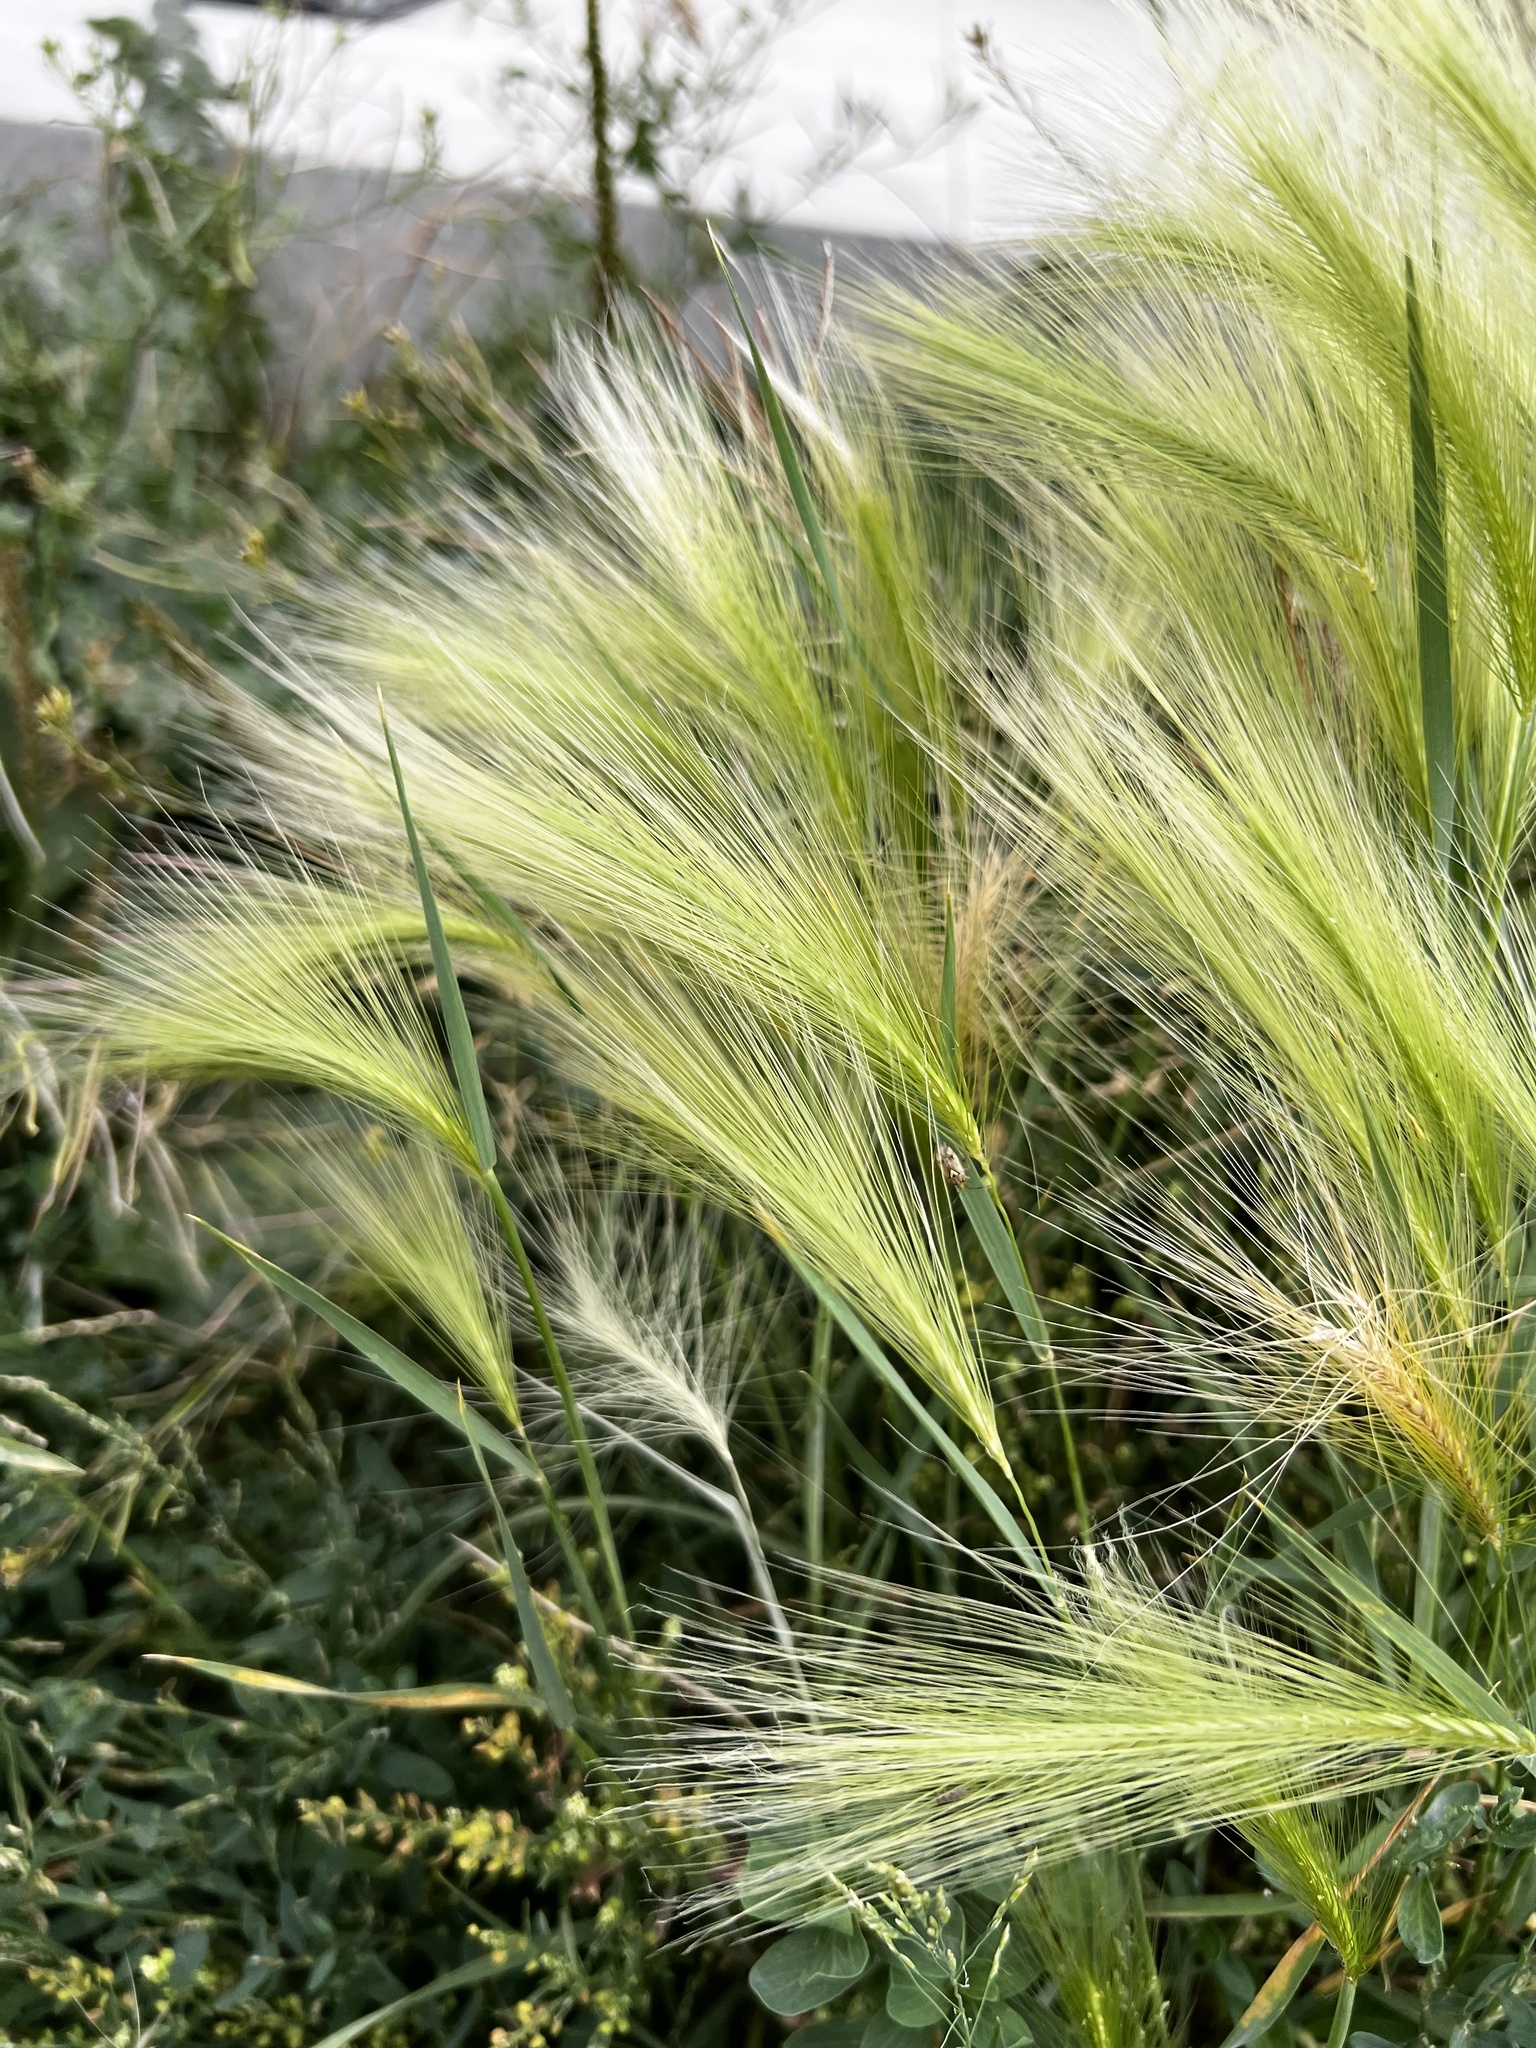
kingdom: Plantae
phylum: Tracheophyta
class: Liliopsida
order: Poales
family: Poaceae
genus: Hordeum
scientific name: Hordeum jubatum
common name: Foxtail barley
